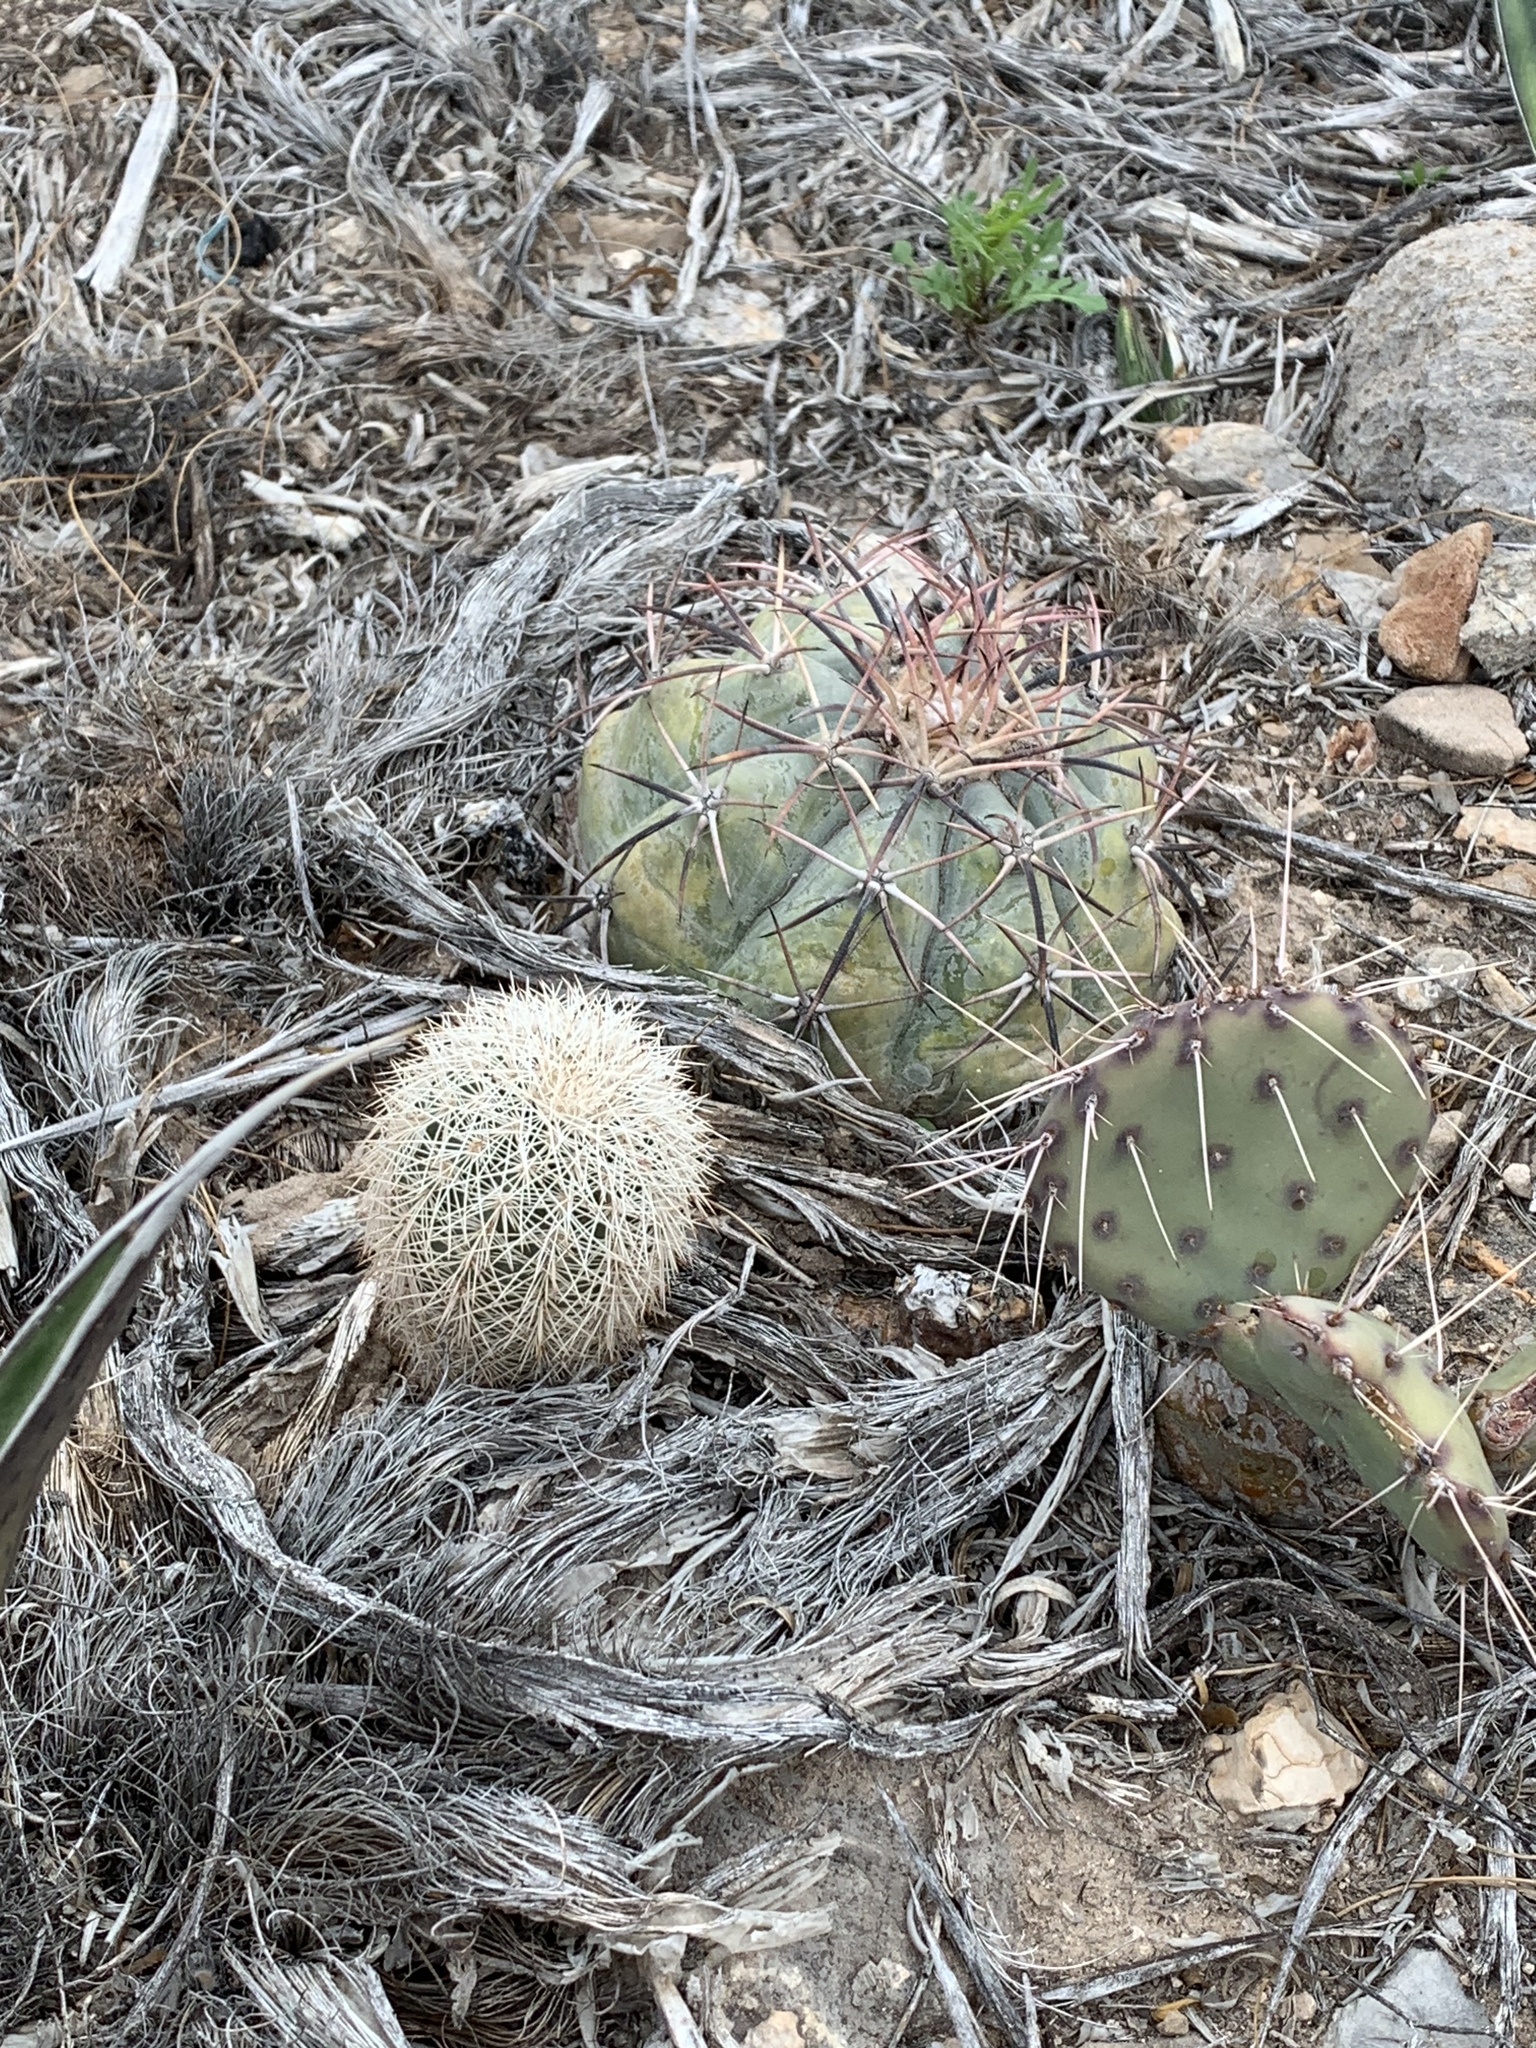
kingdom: Plantae
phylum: Tracheophyta
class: Magnoliopsida
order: Caryophyllales
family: Cactaceae
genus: Echinocereus
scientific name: Echinocereus dasyacanthus
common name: Spiny hedgehog cactus
